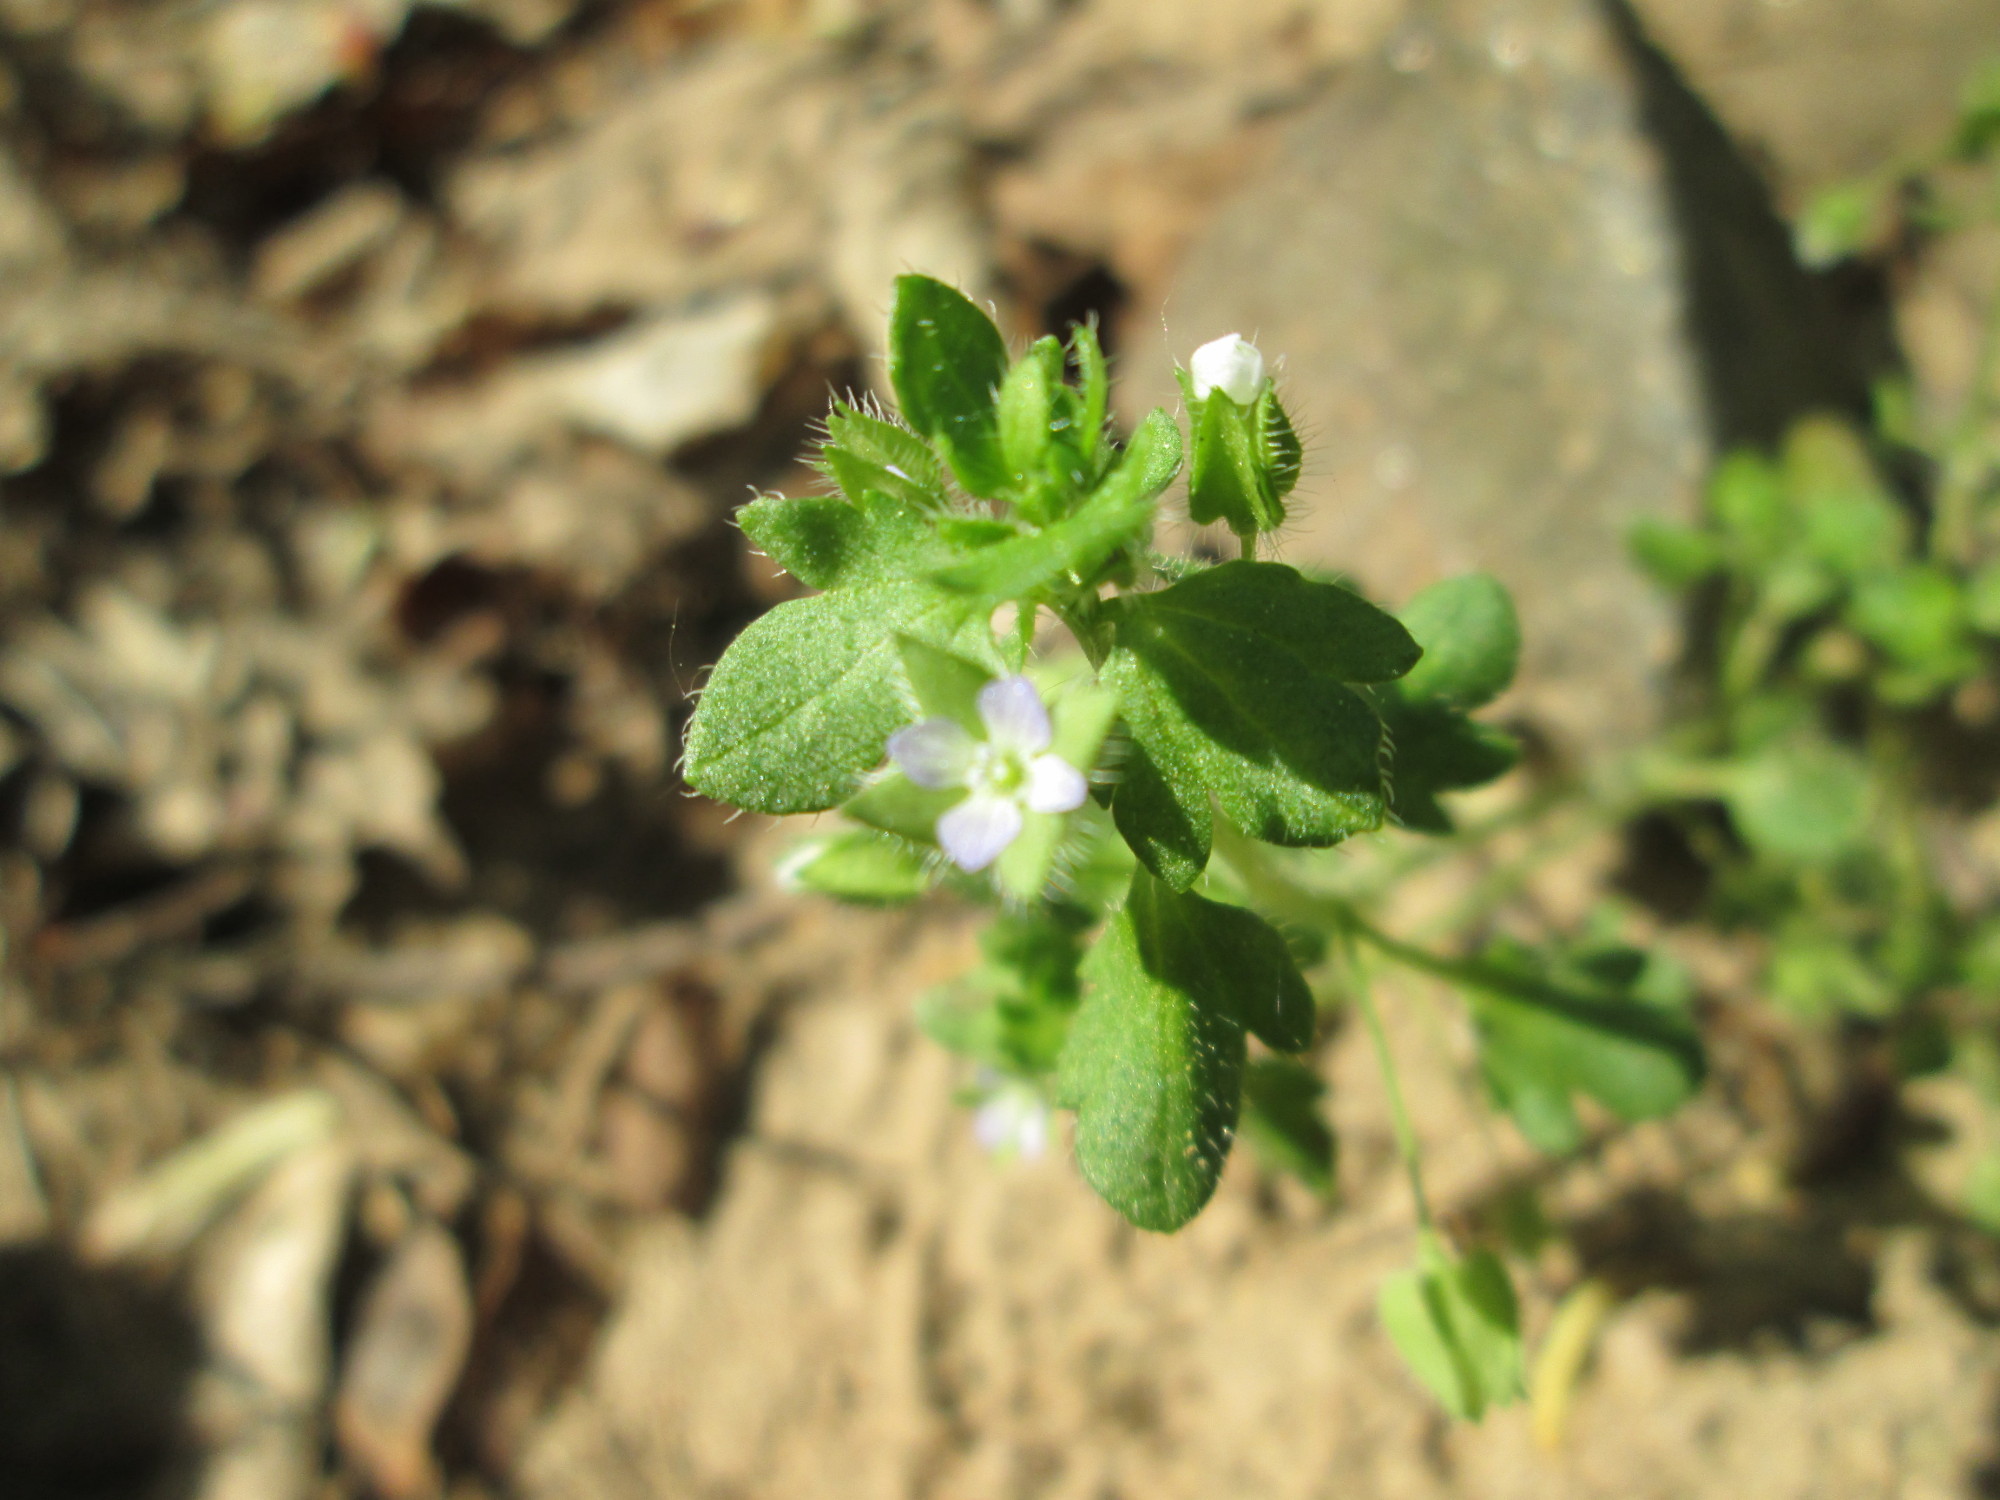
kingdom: Plantae
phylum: Tracheophyta
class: Magnoliopsida
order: Lamiales
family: Plantaginaceae
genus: Veronica
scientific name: Veronica sublobata
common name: False ivy-leaved speedwell
